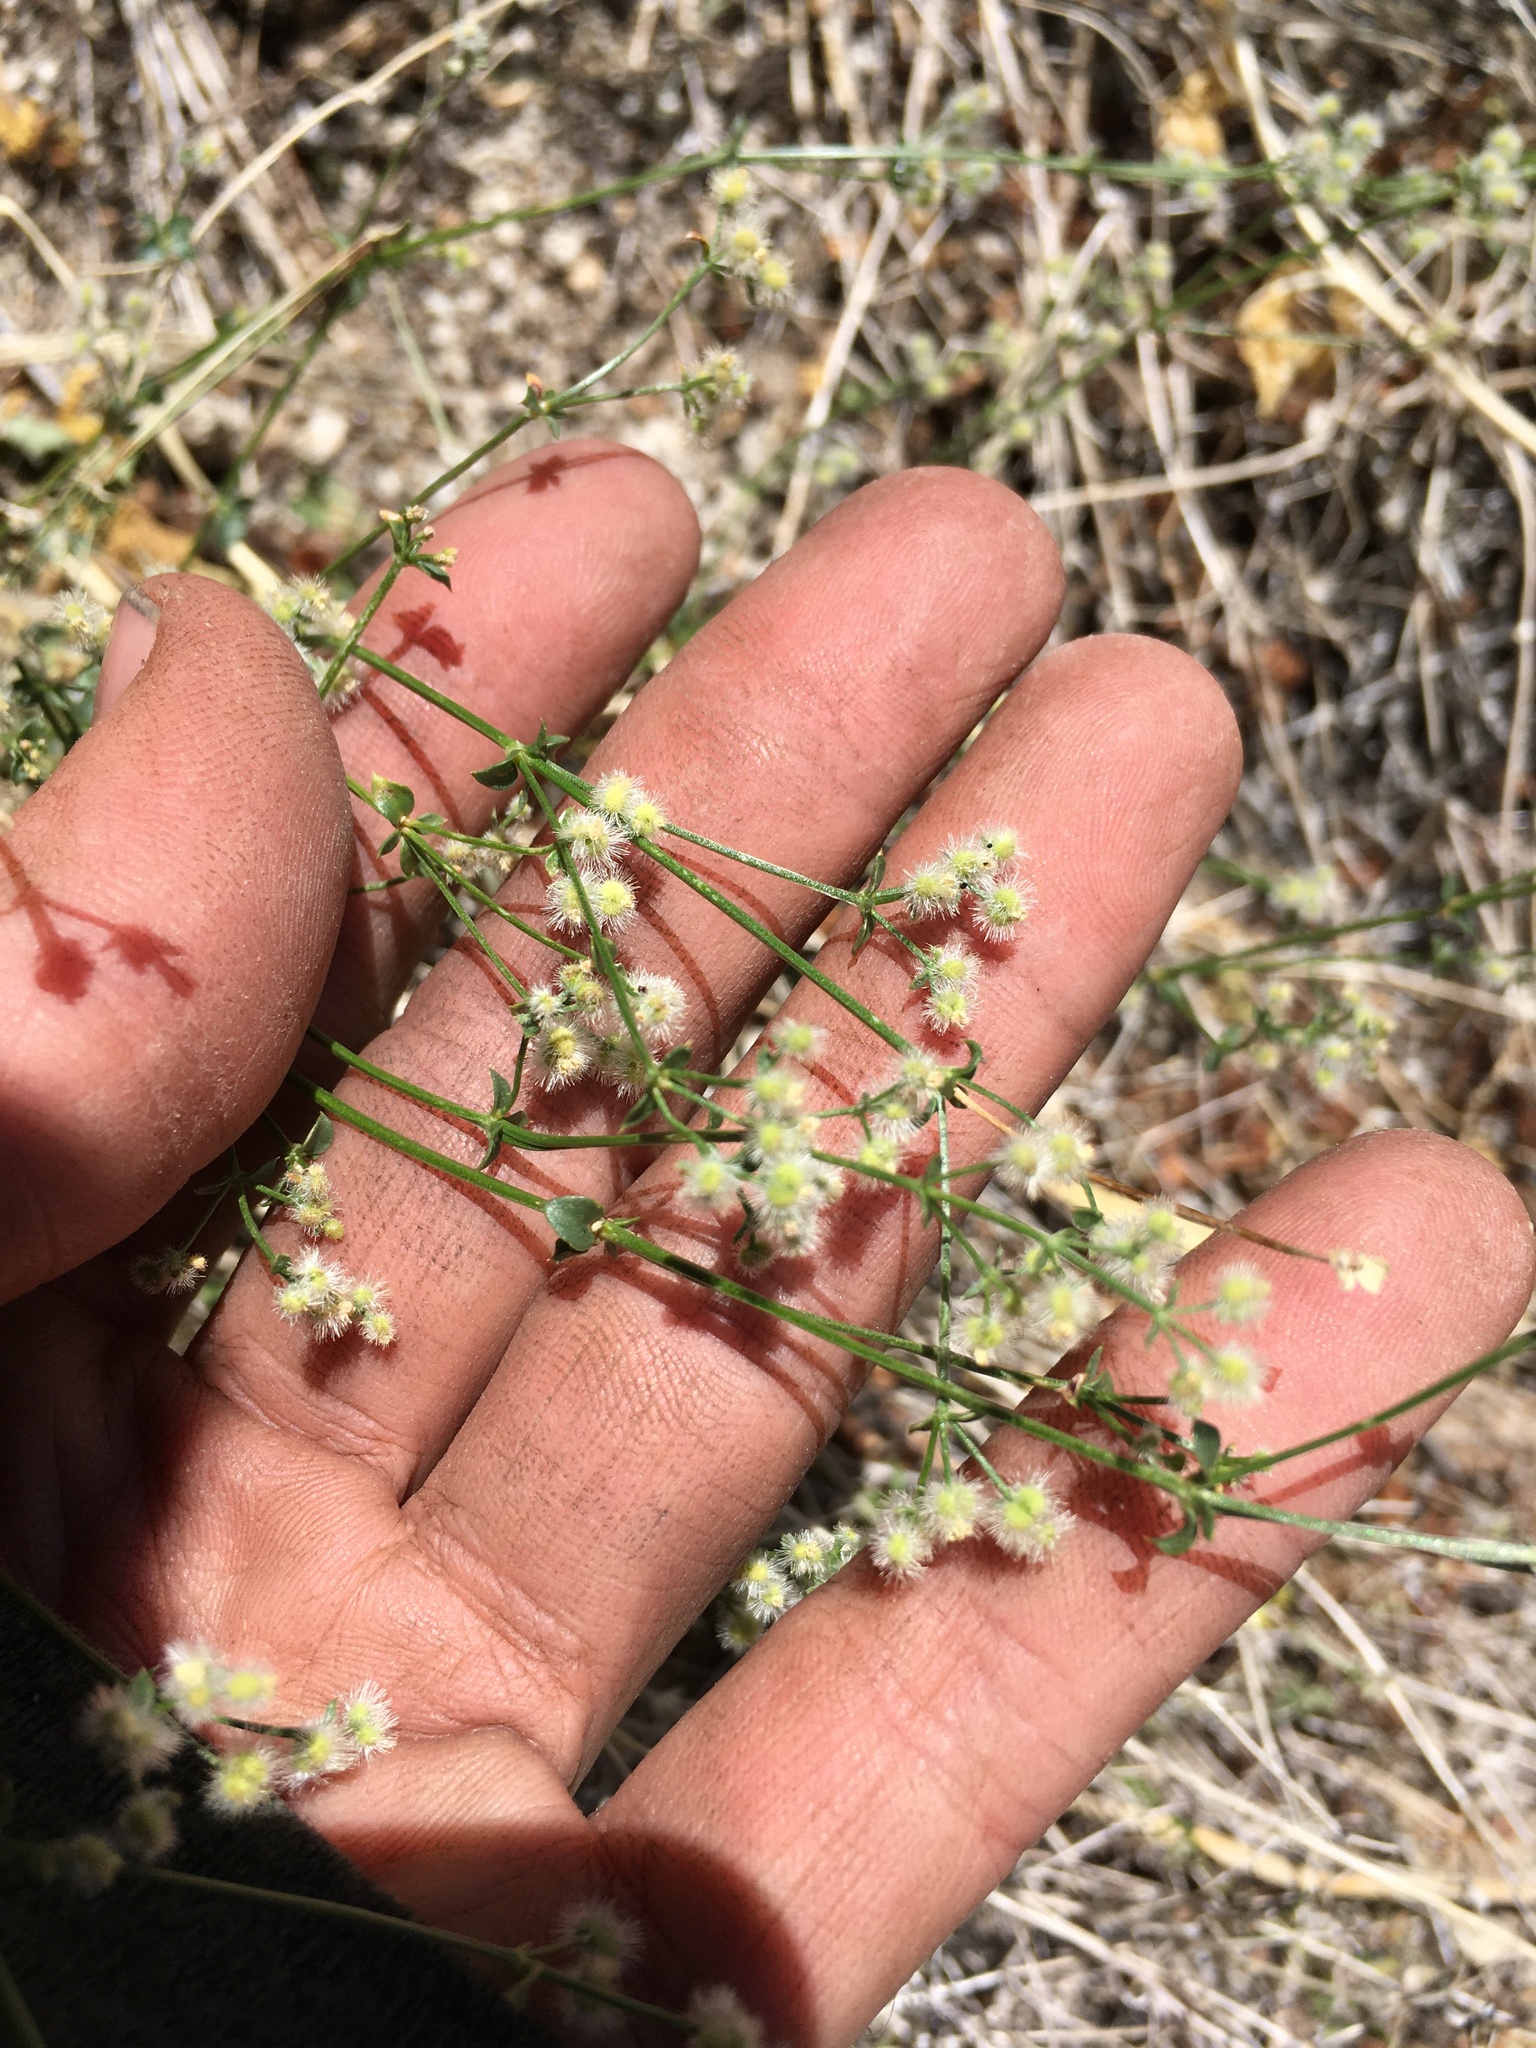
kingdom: Plantae
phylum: Tracheophyta
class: Magnoliopsida
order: Gentianales
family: Rubiaceae
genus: Galium
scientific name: Galium matthewsii
